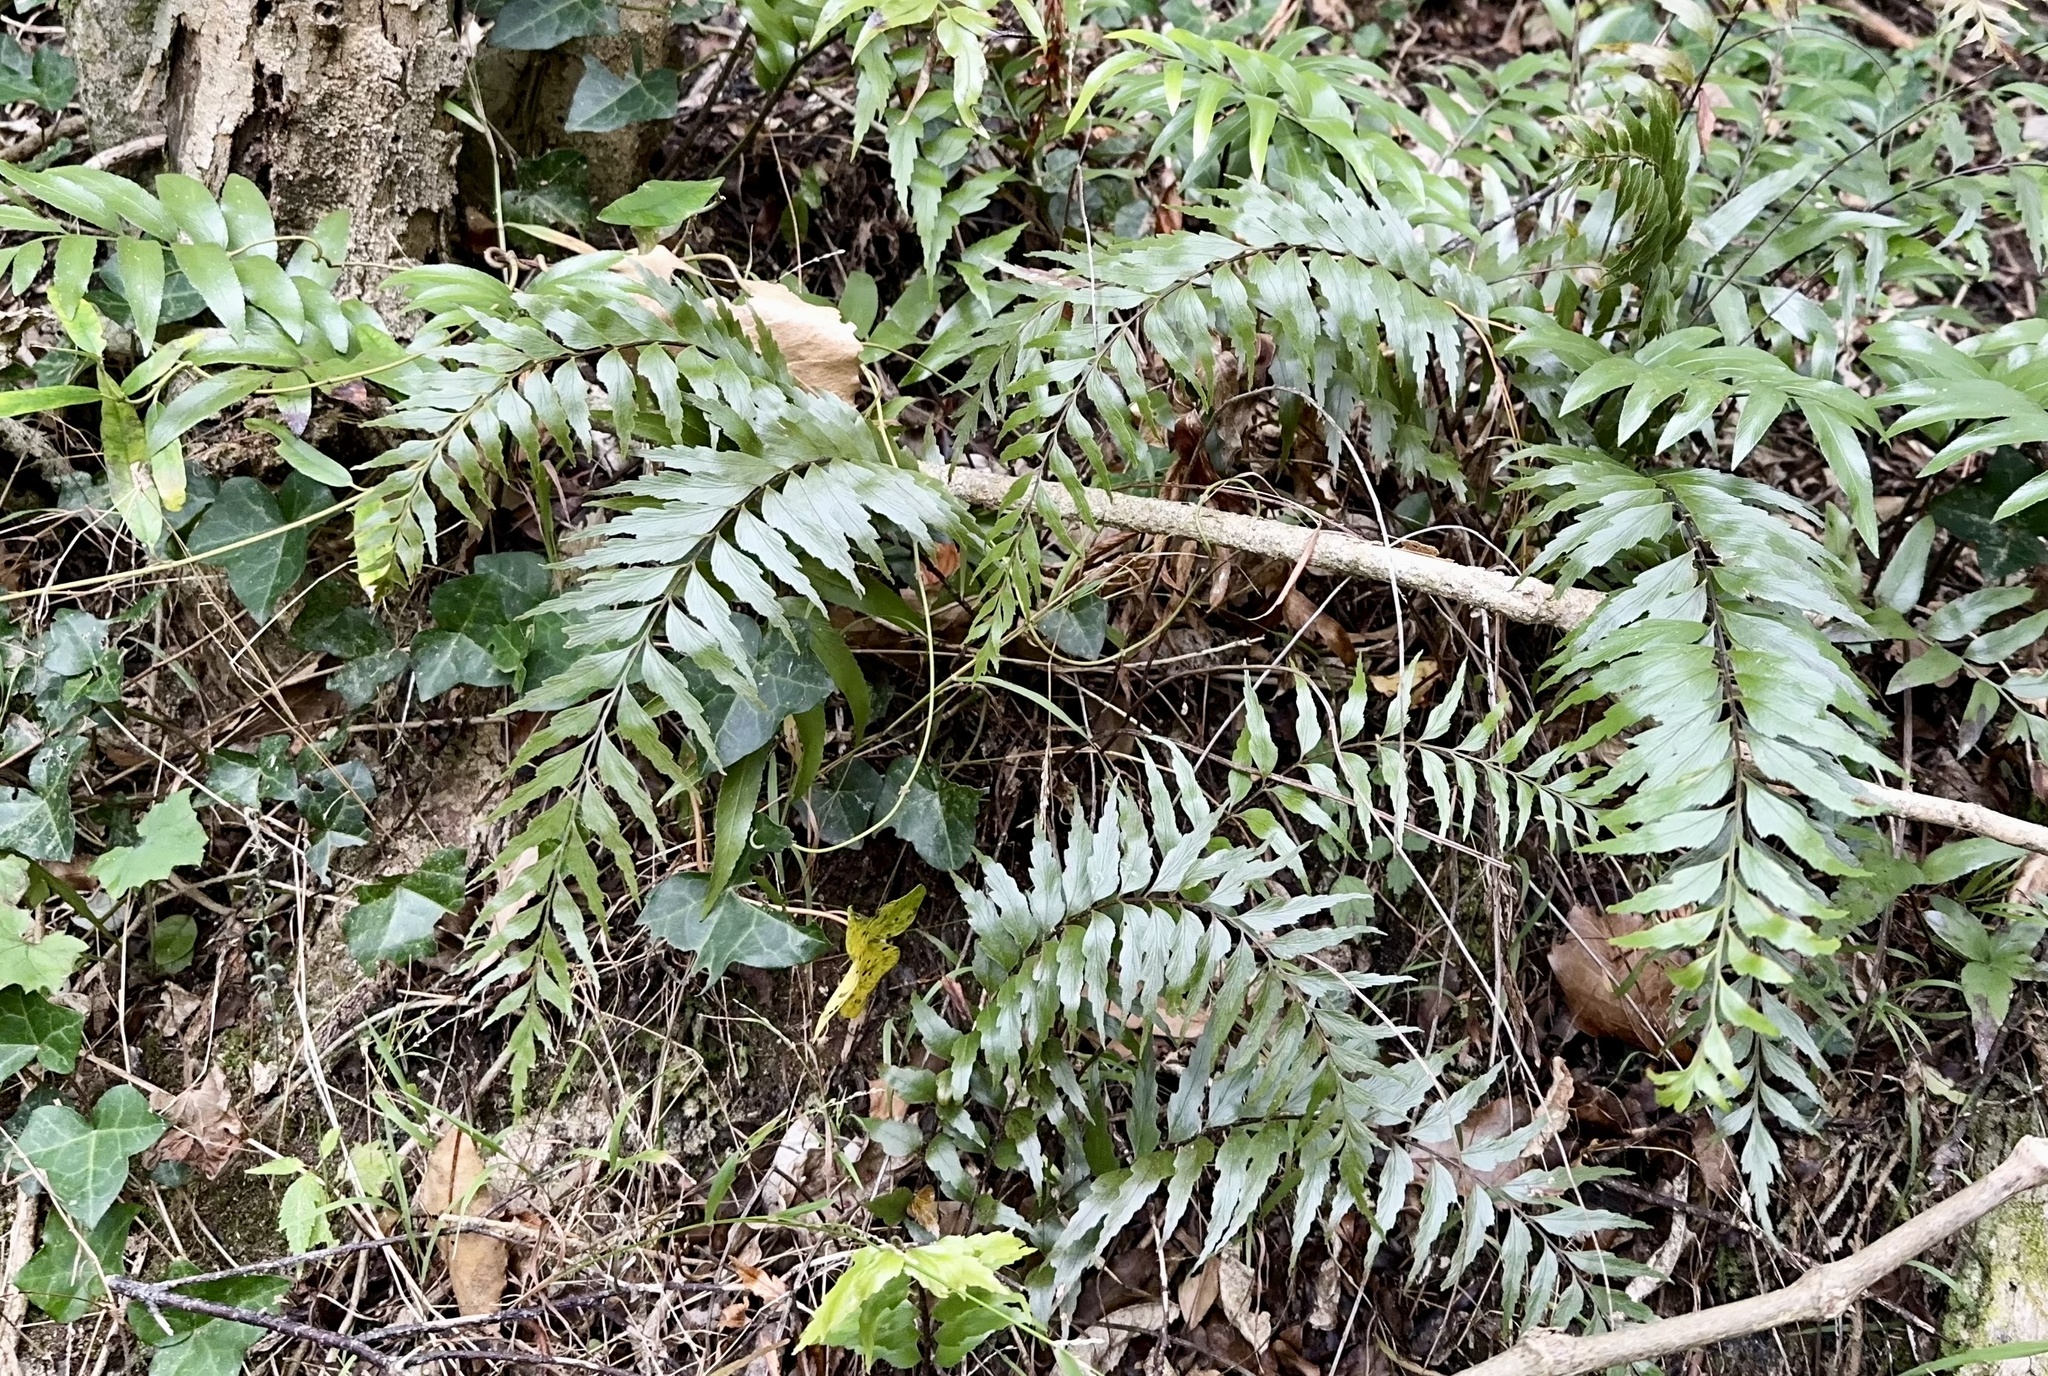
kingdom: Plantae
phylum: Tracheophyta
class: Polypodiopsida
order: Polypodiales
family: Aspleniaceae
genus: Asplenium
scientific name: Asplenium polyodon
